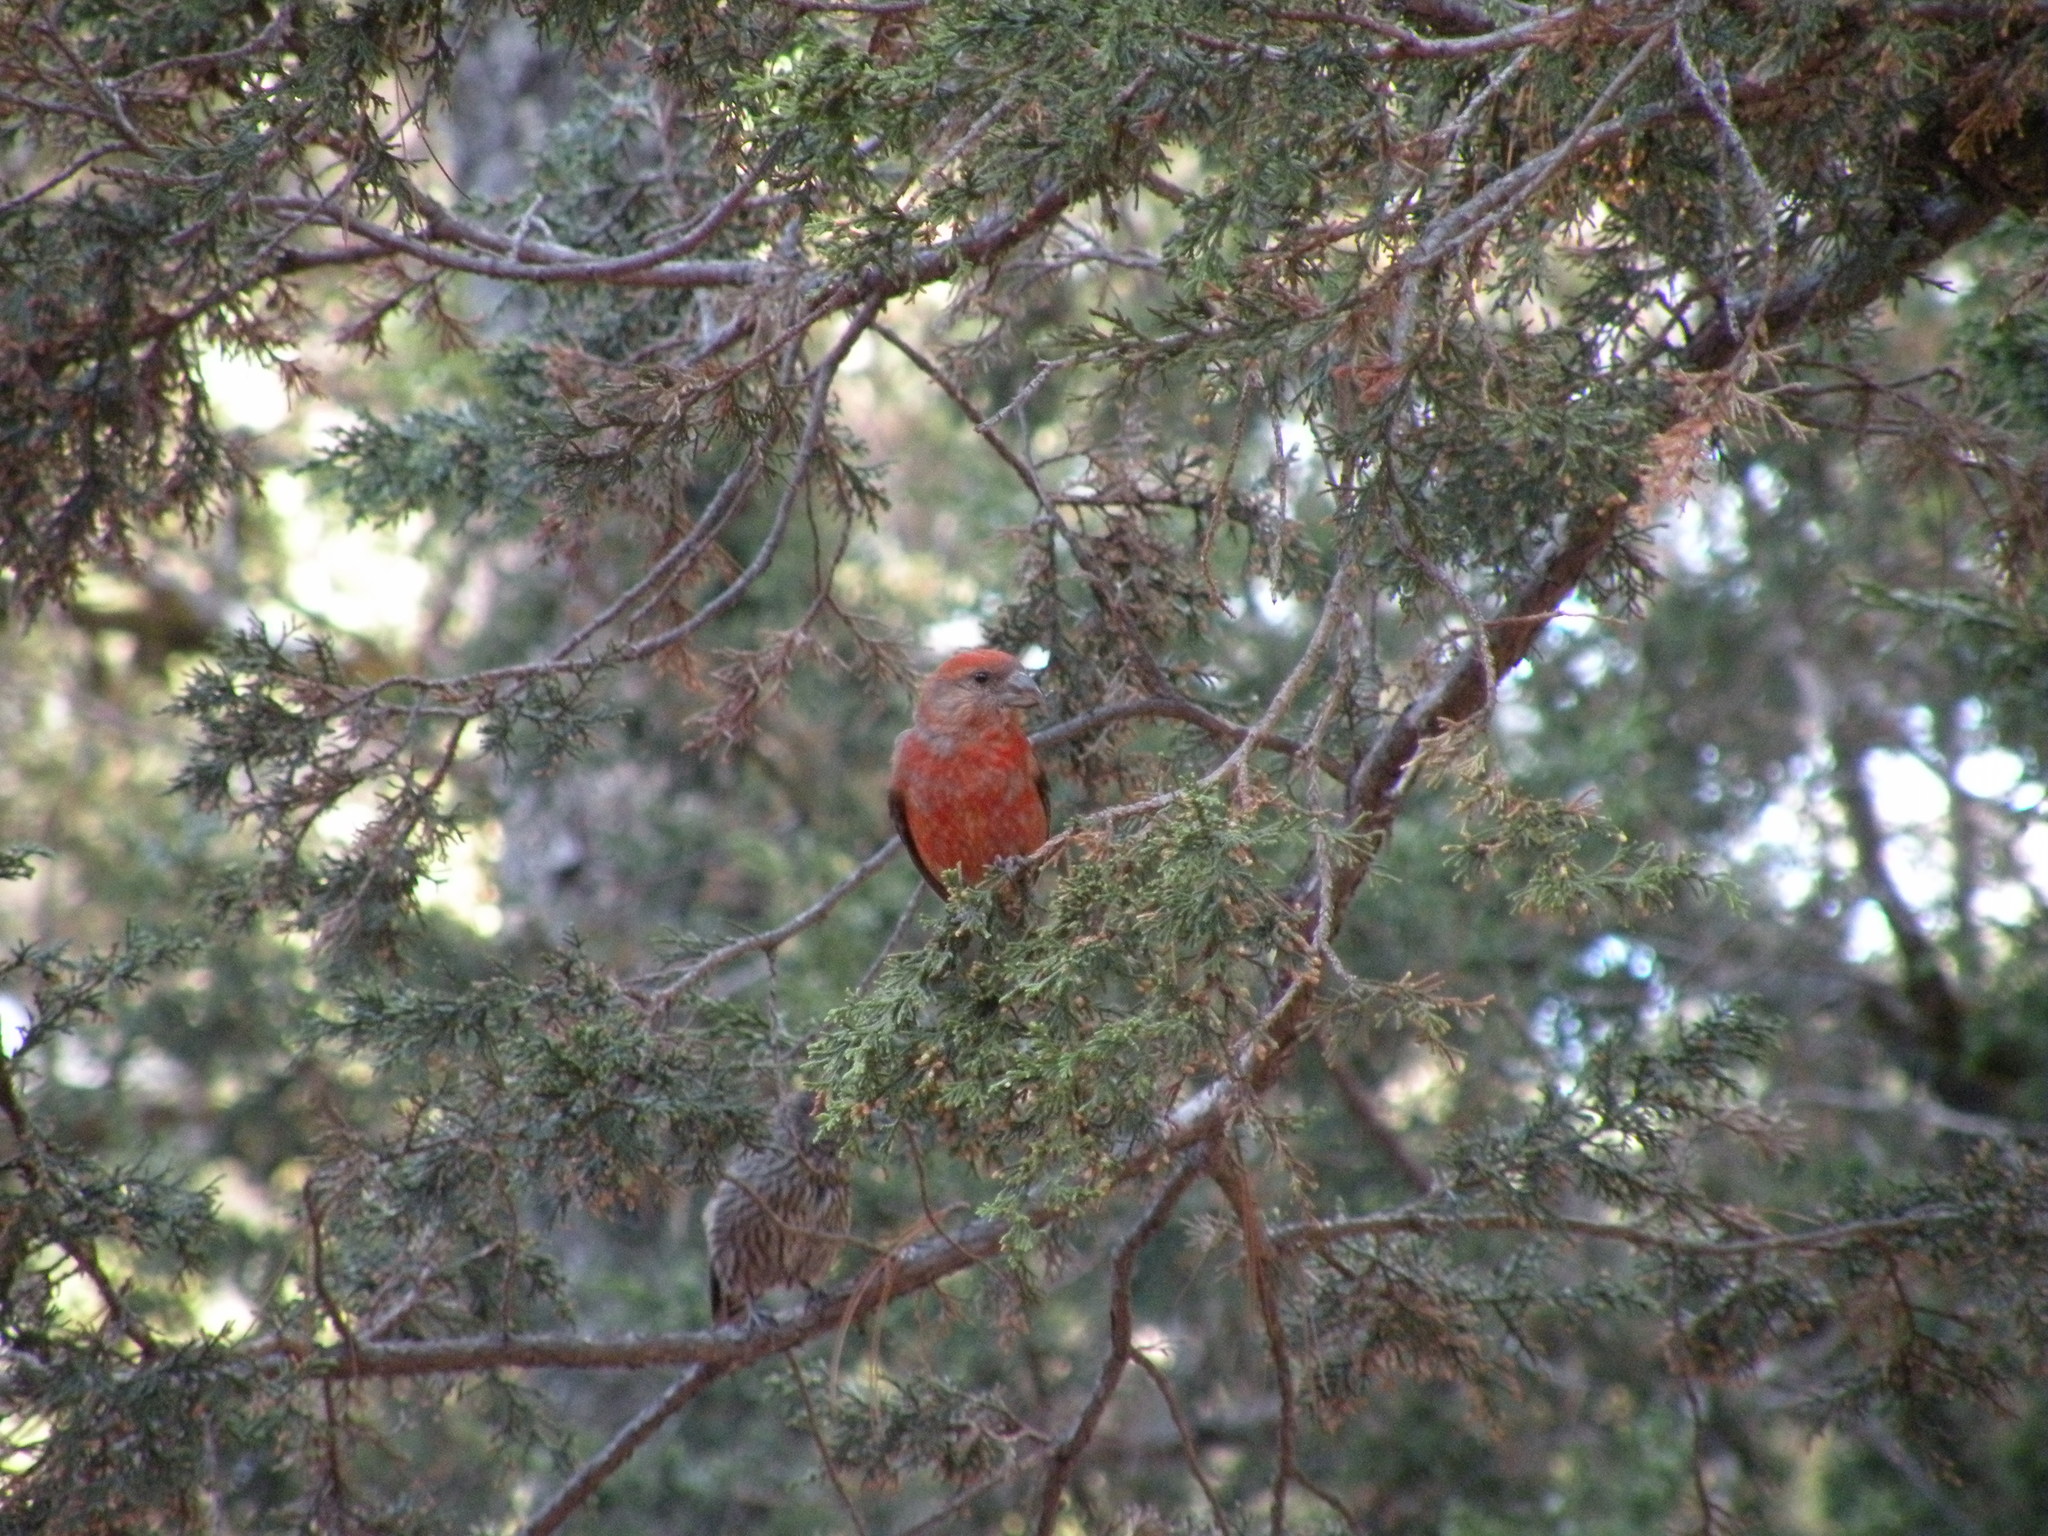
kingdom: Animalia
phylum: Chordata
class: Aves
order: Passeriformes
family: Fringillidae
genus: Loxia
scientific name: Loxia curvirostra
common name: Red crossbill
